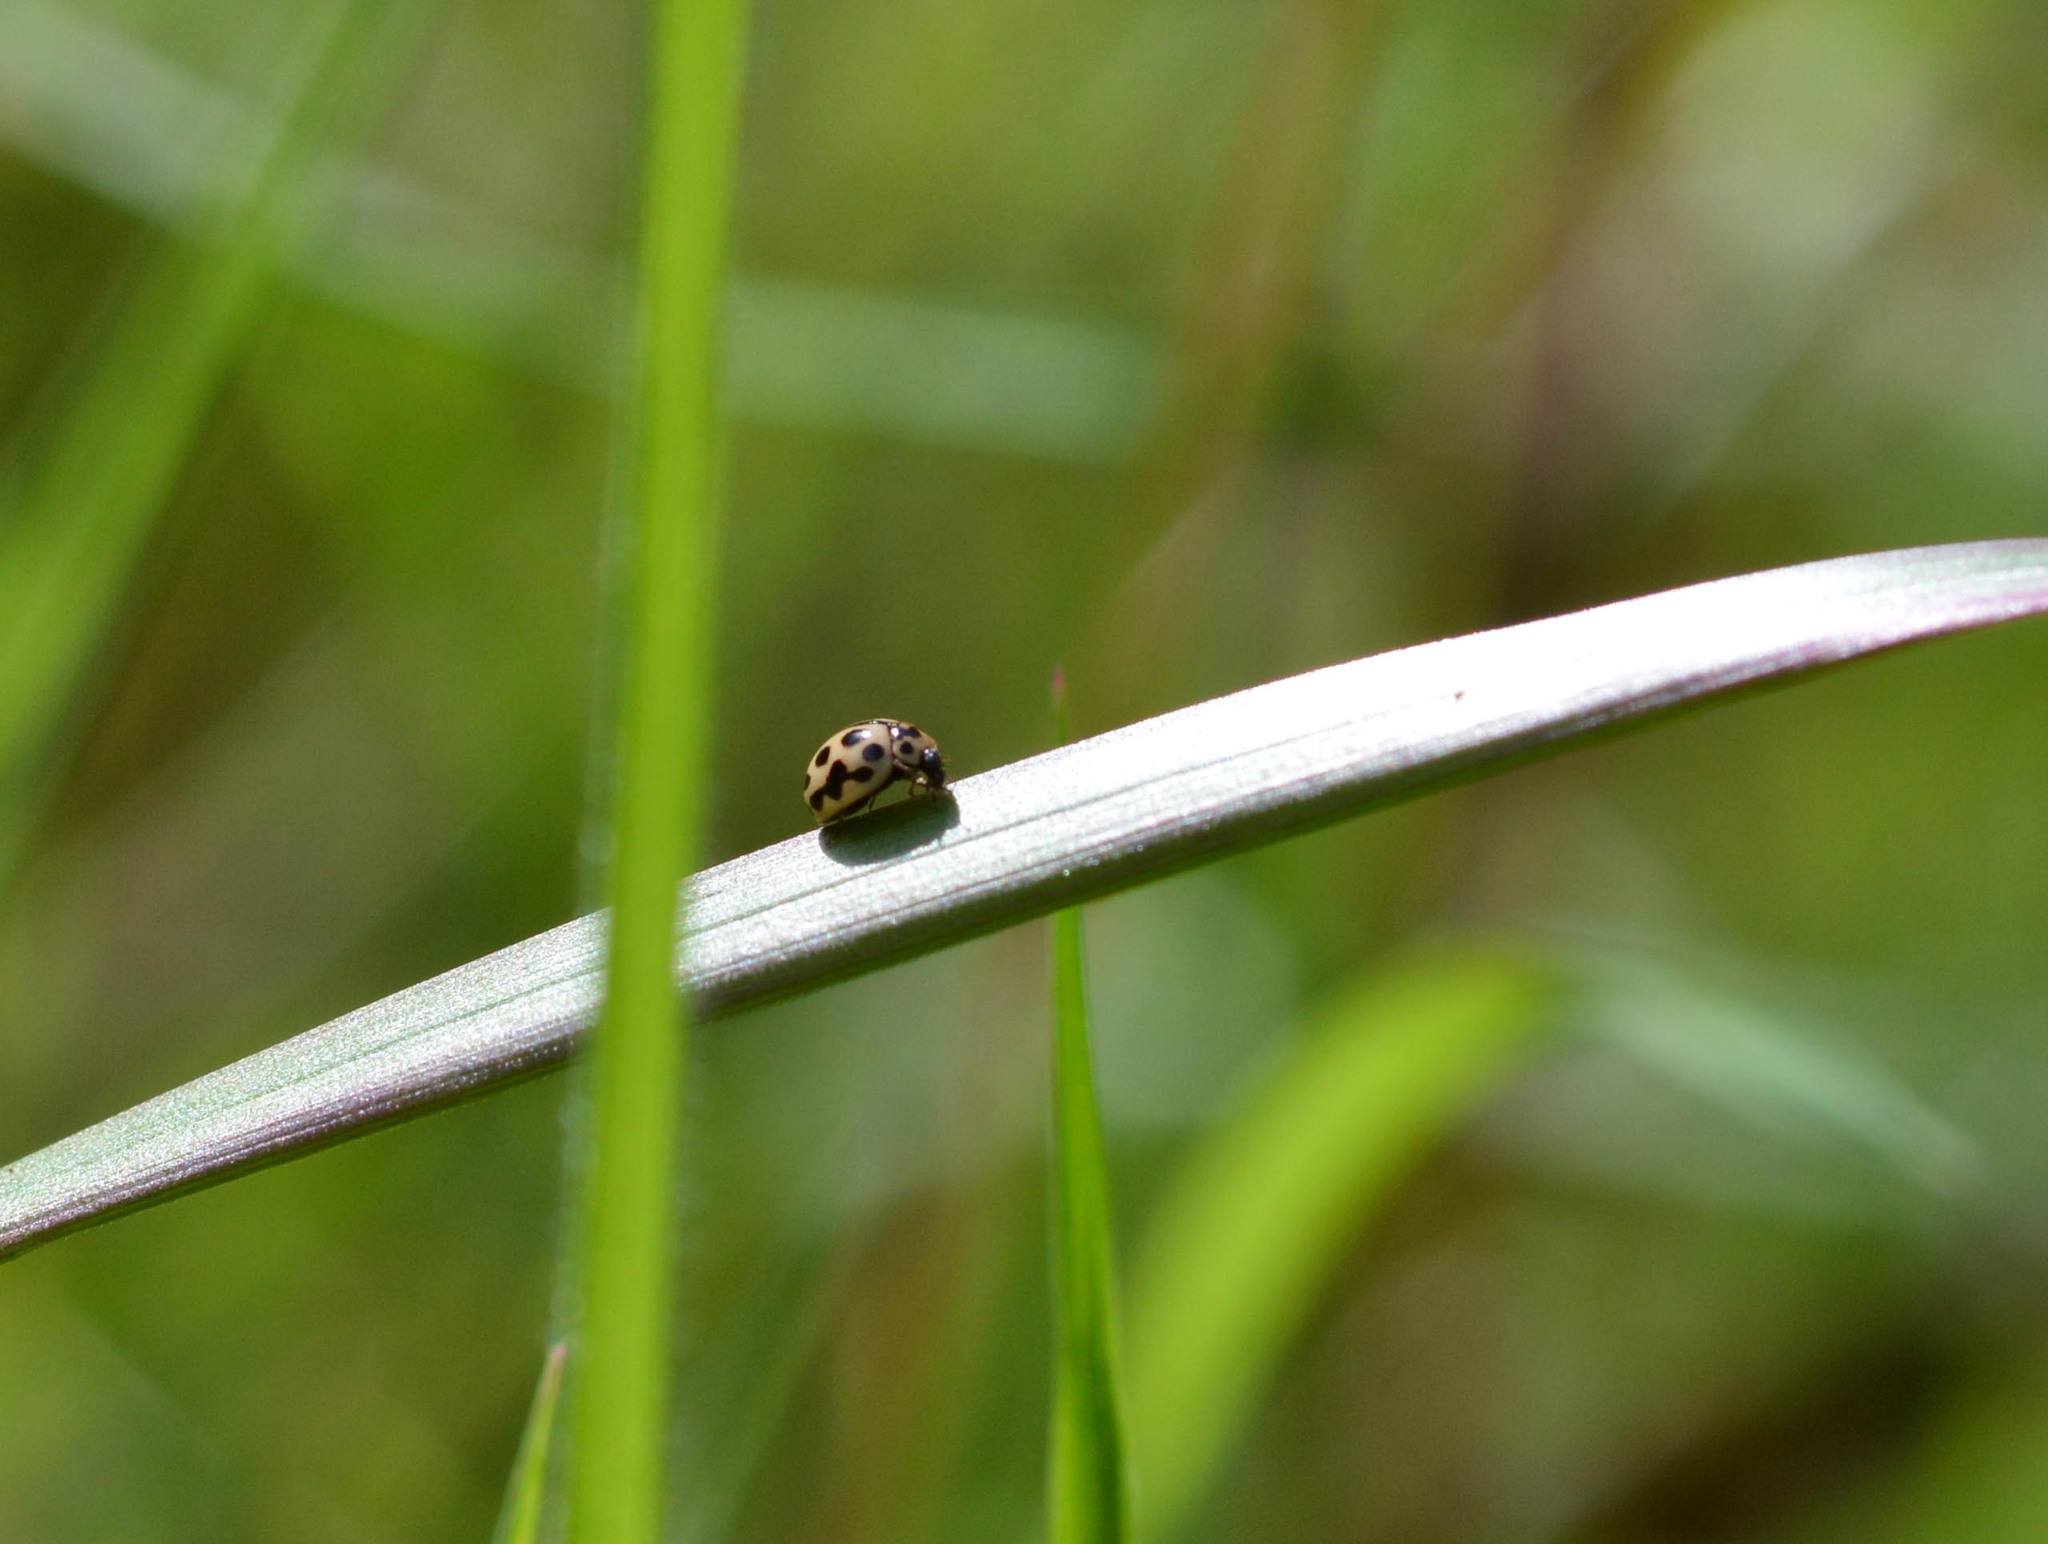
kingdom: Animalia
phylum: Arthropoda
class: Insecta
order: Coleoptera
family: Coccinellidae
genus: Tytthaspis
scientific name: Tytthaspis sedecimpunctata
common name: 16-spot ladybird
